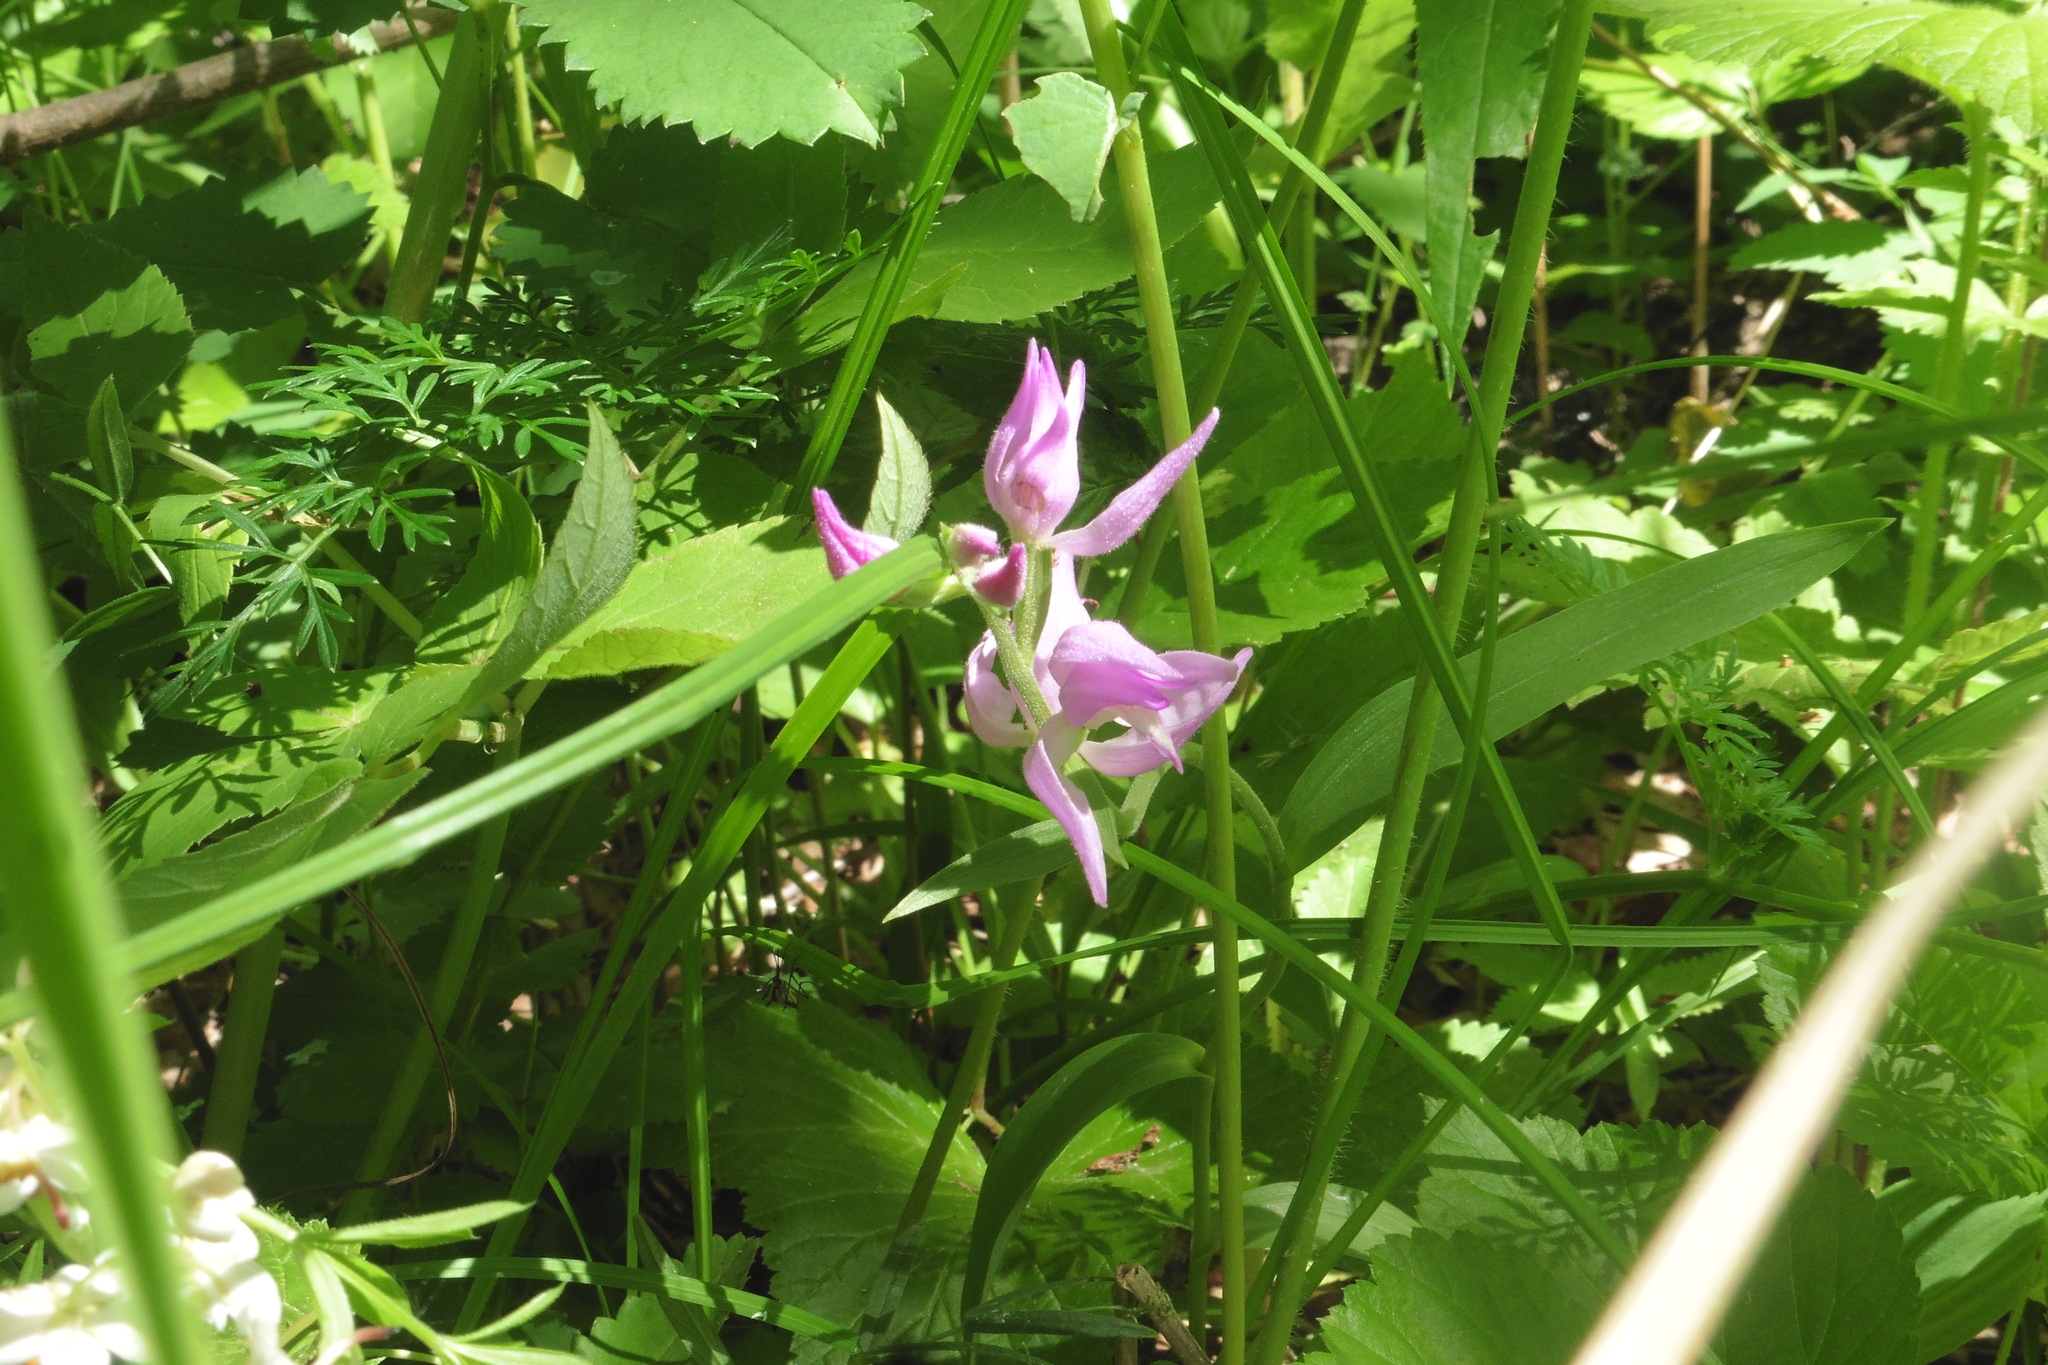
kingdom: Plantae
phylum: Tracheophyta
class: Liliopsida
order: Asparagales
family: Orchidaceae
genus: Cephalanthera
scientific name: Cephalanthera rubra
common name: Red helleborine
